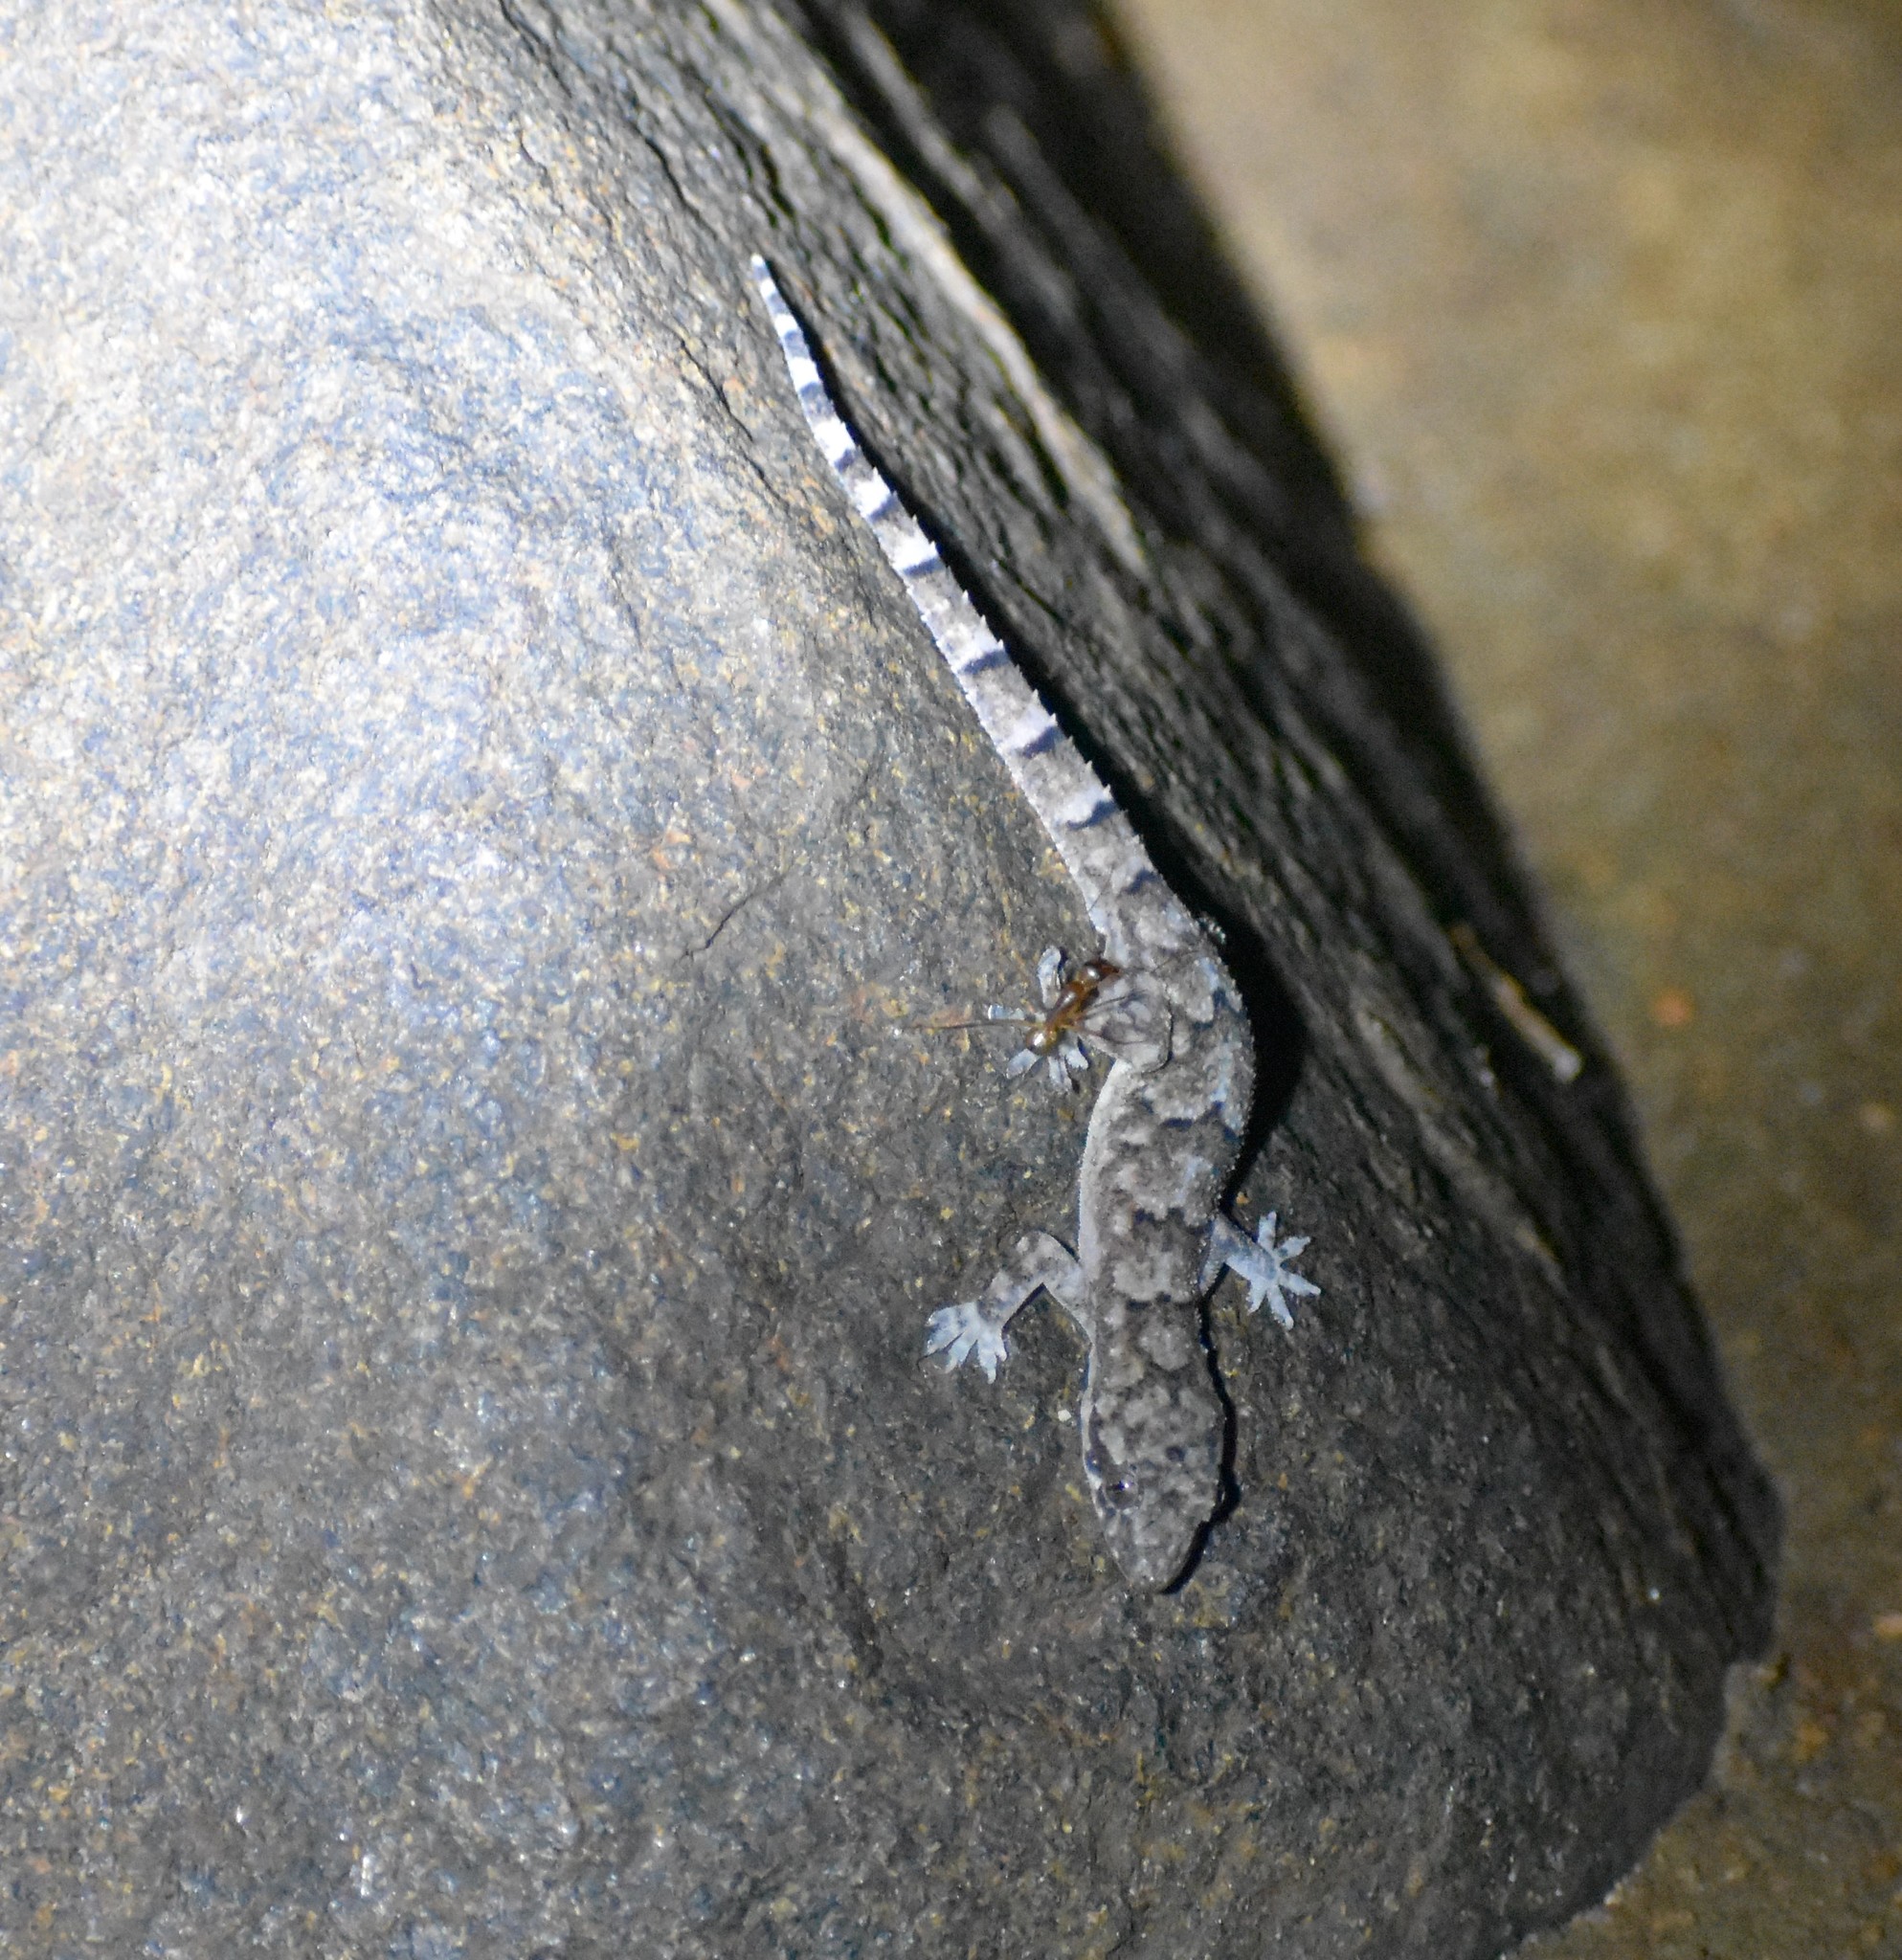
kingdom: Animalia
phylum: Chordata
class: Squamata
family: Gekkonidae
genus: Hemidactylus
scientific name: Hemidactylus mabouia
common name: House gecko
